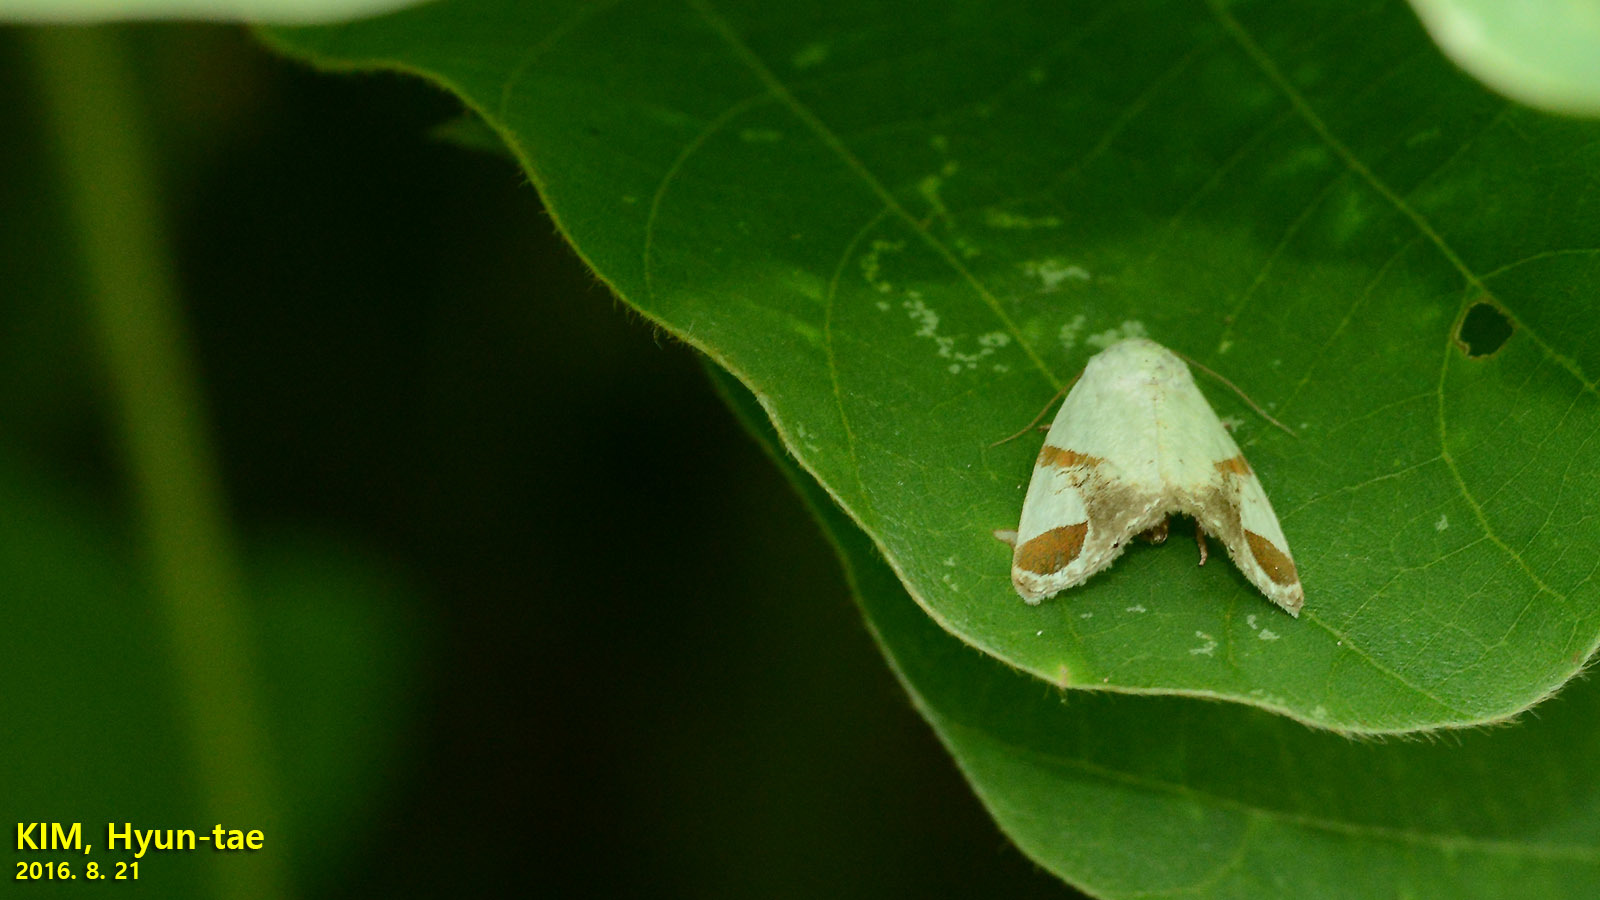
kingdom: Animalia
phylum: Arthropoda
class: Insecta
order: Lepidoptera
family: Noctuidae
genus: Sphragifera
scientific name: Sphragifera biplaga
